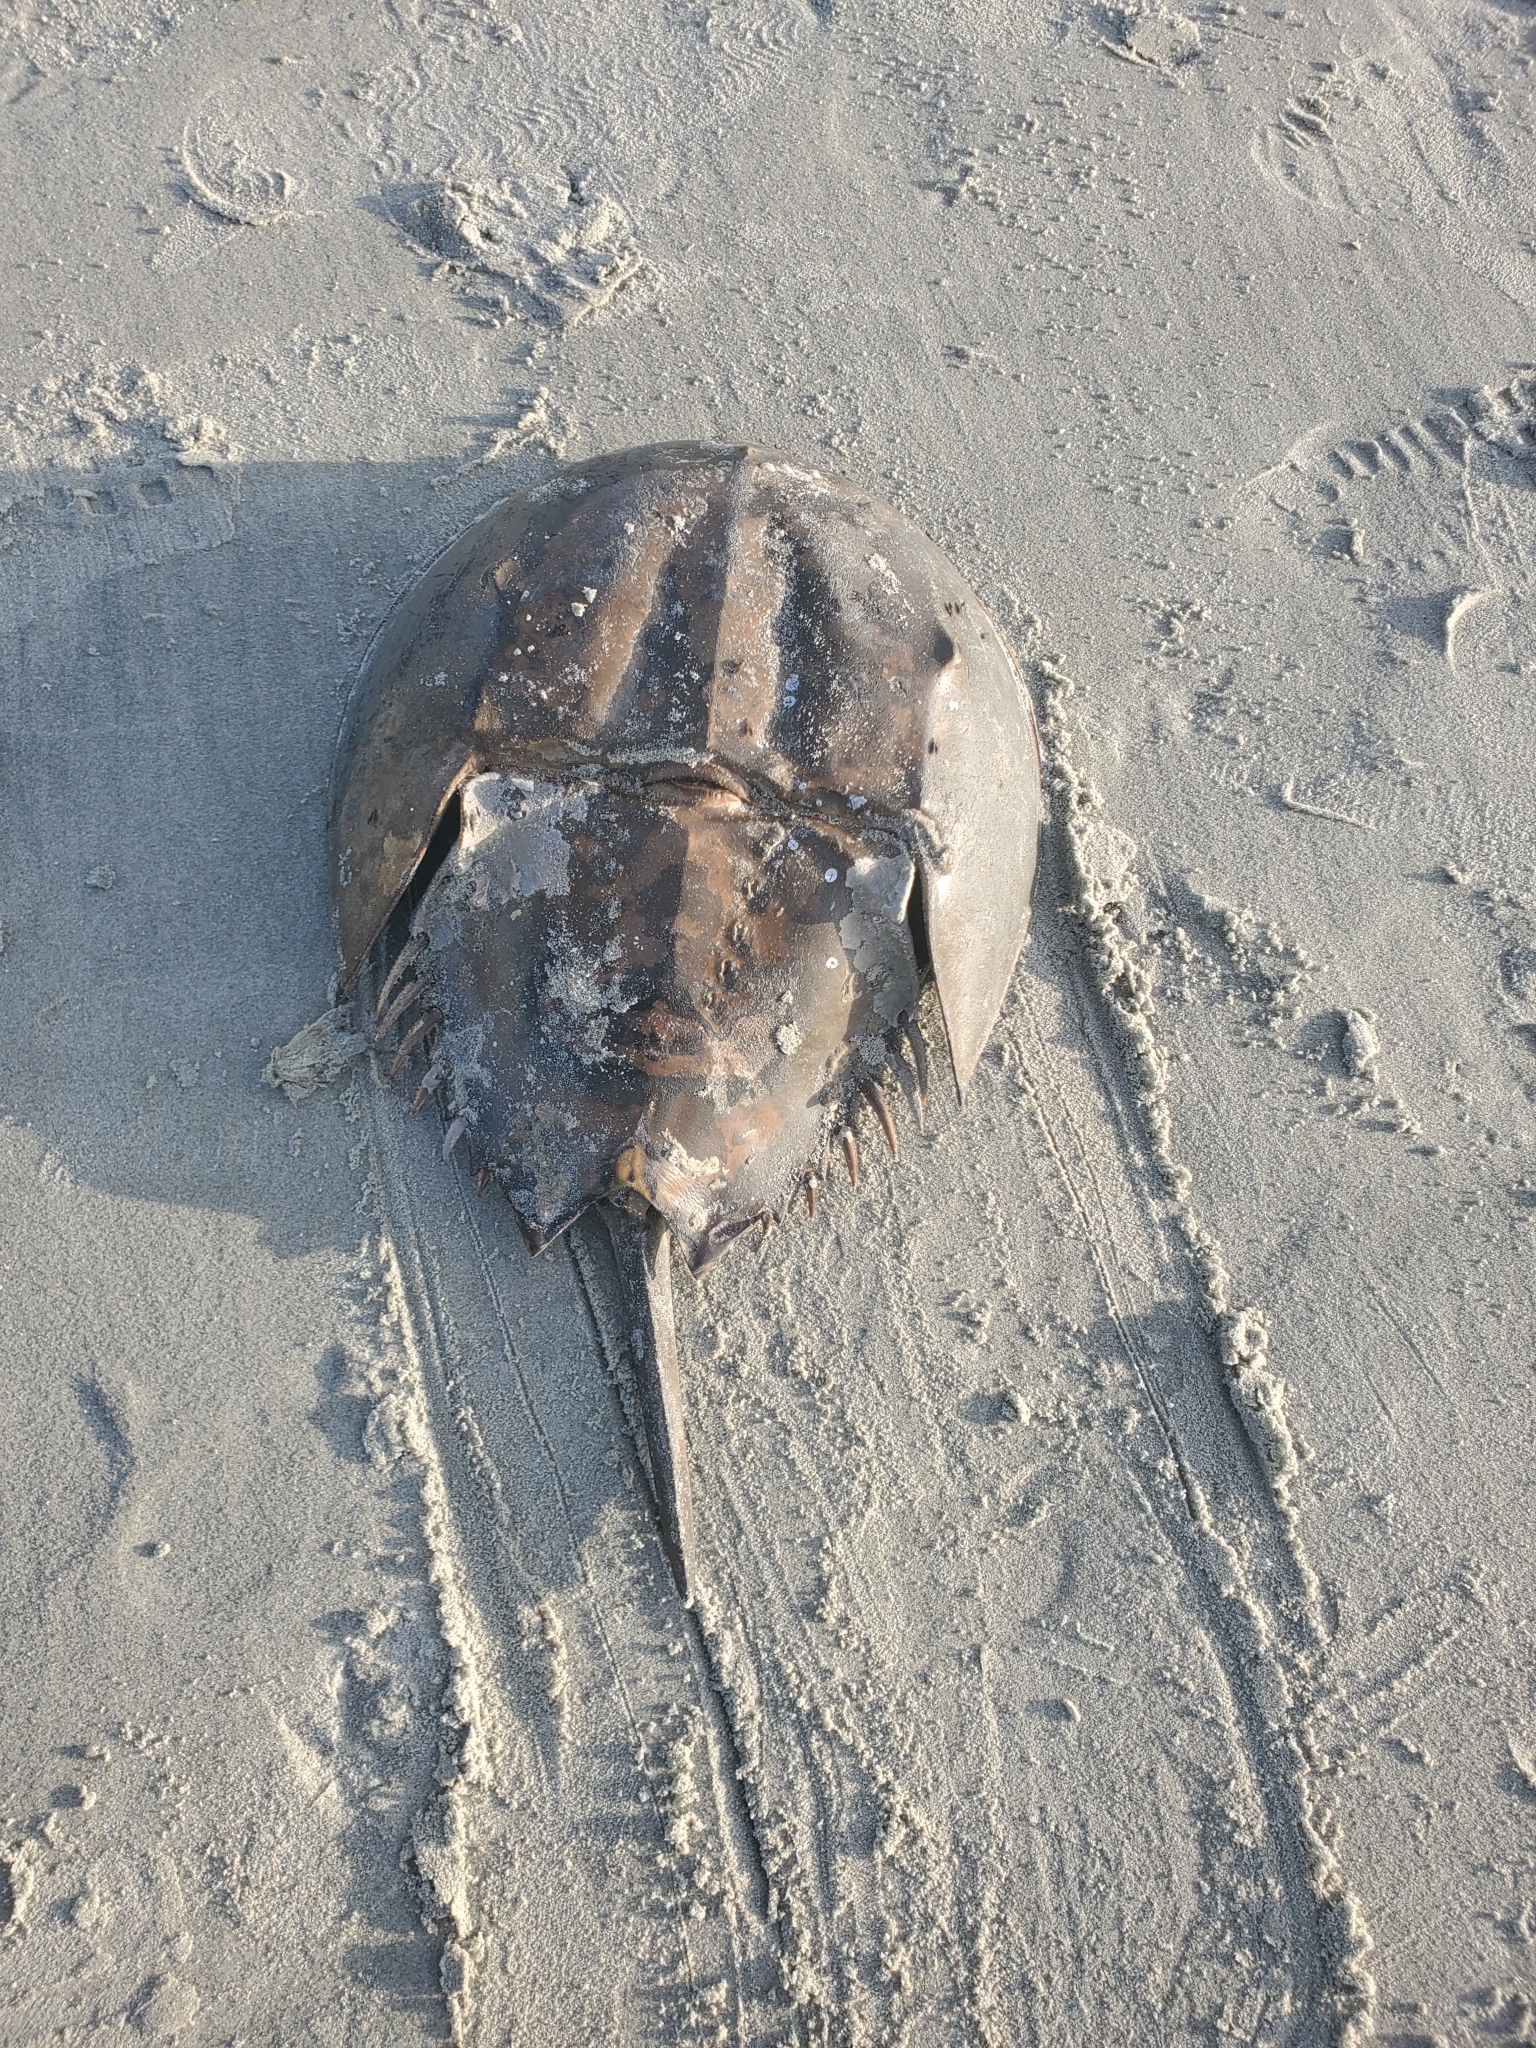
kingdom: Animalia
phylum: Arthropoda
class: Merostomata
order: Xiphosurida
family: Limulidae
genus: Limulus
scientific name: Limulus polyphemus
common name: Horseshoe crab
